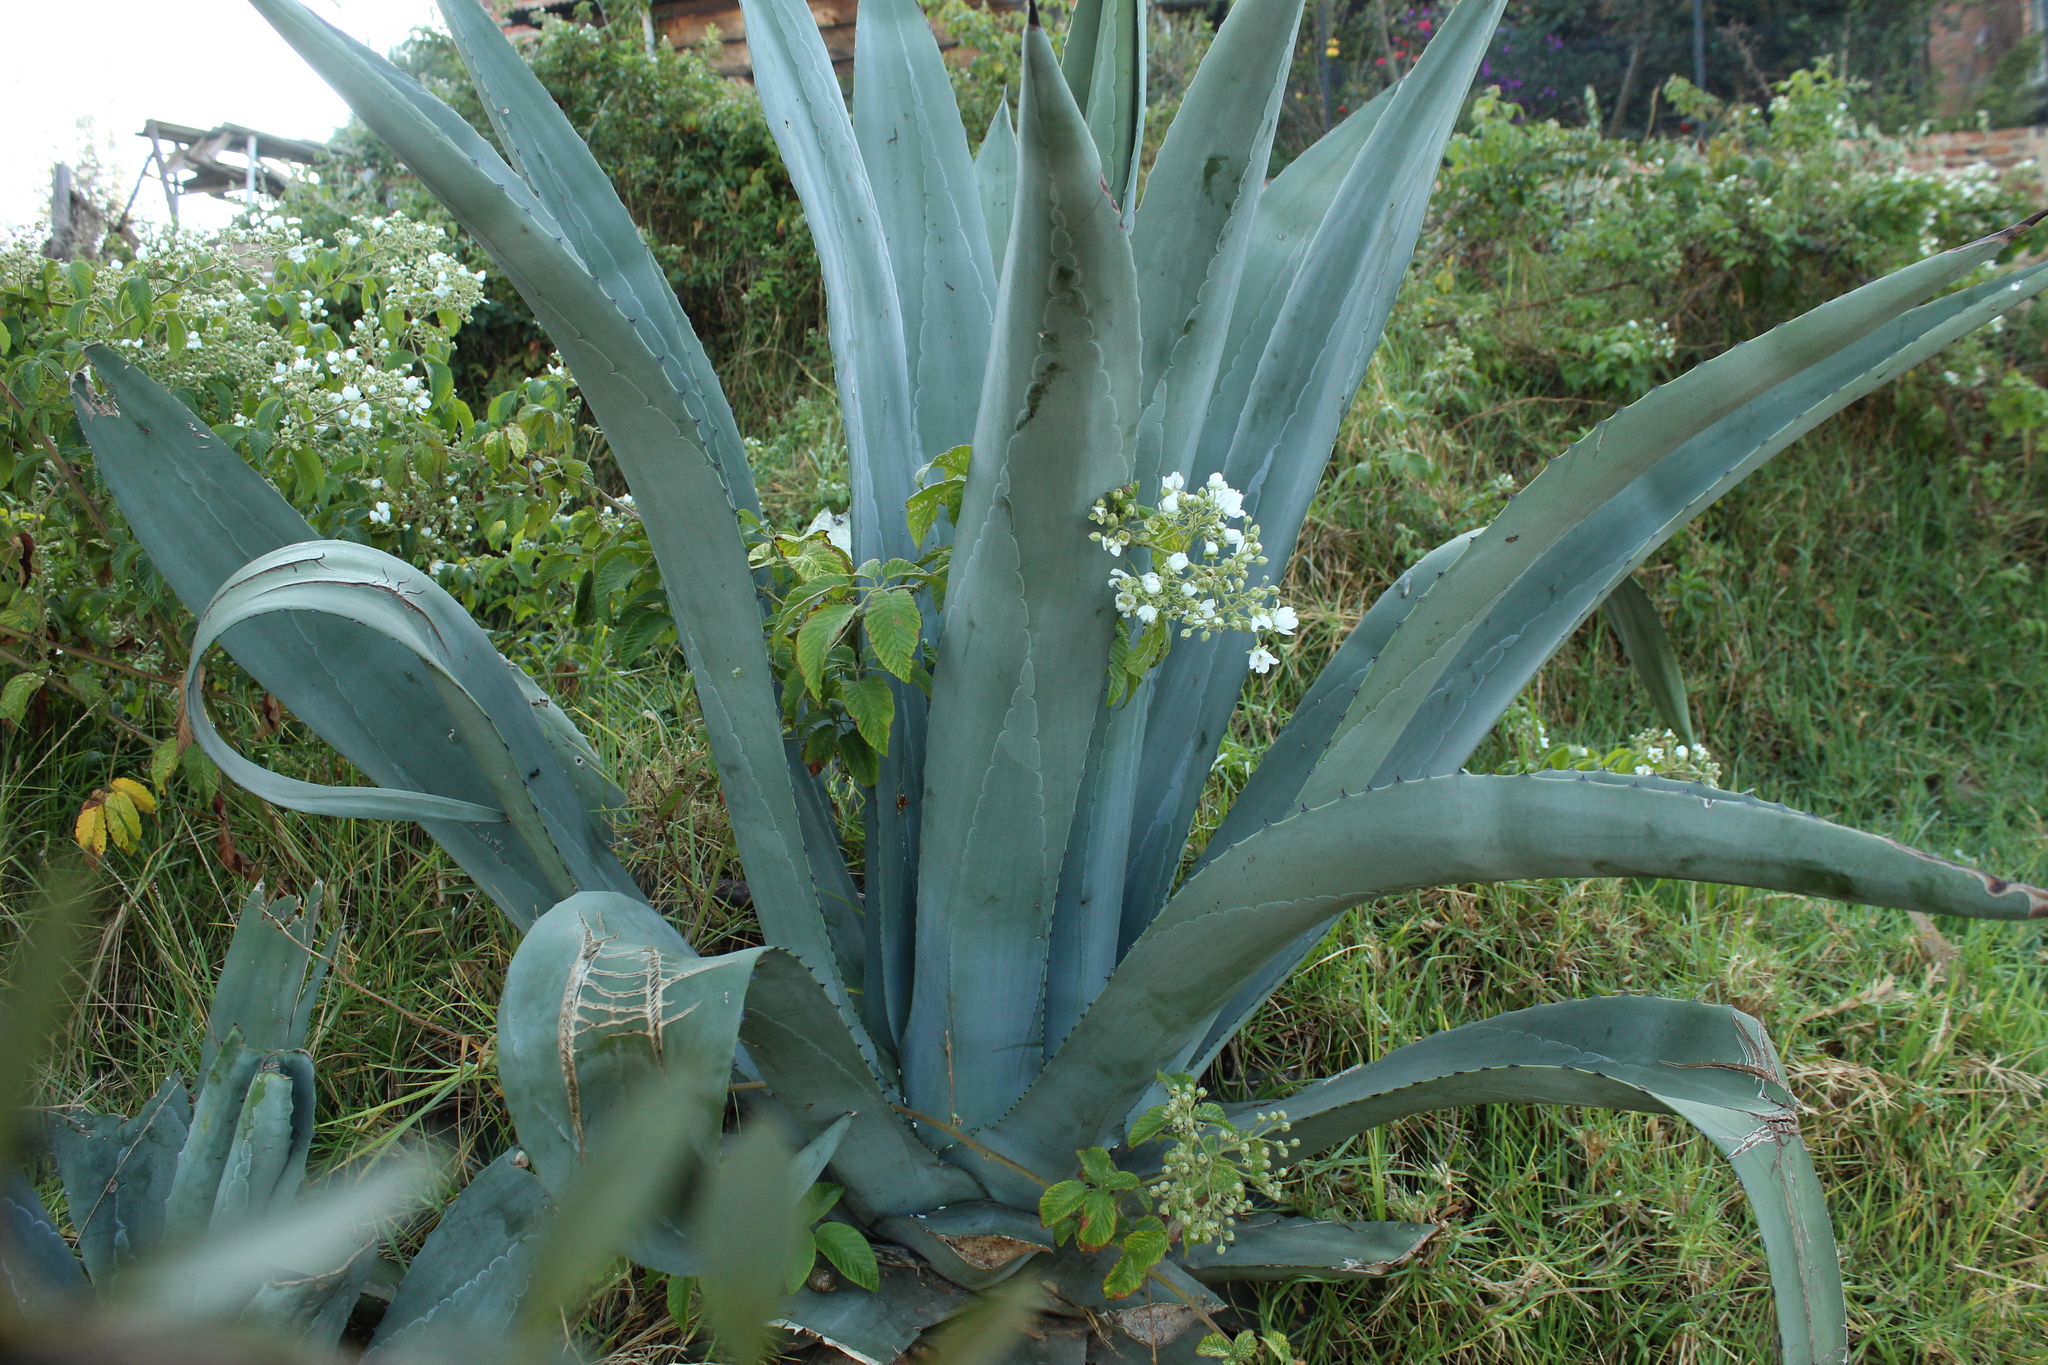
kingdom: Plantae
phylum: Tracheophyta
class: Liliopsida
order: Asparagales
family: Asparagaceae
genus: Agave
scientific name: Agave americana
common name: Centuryplant
